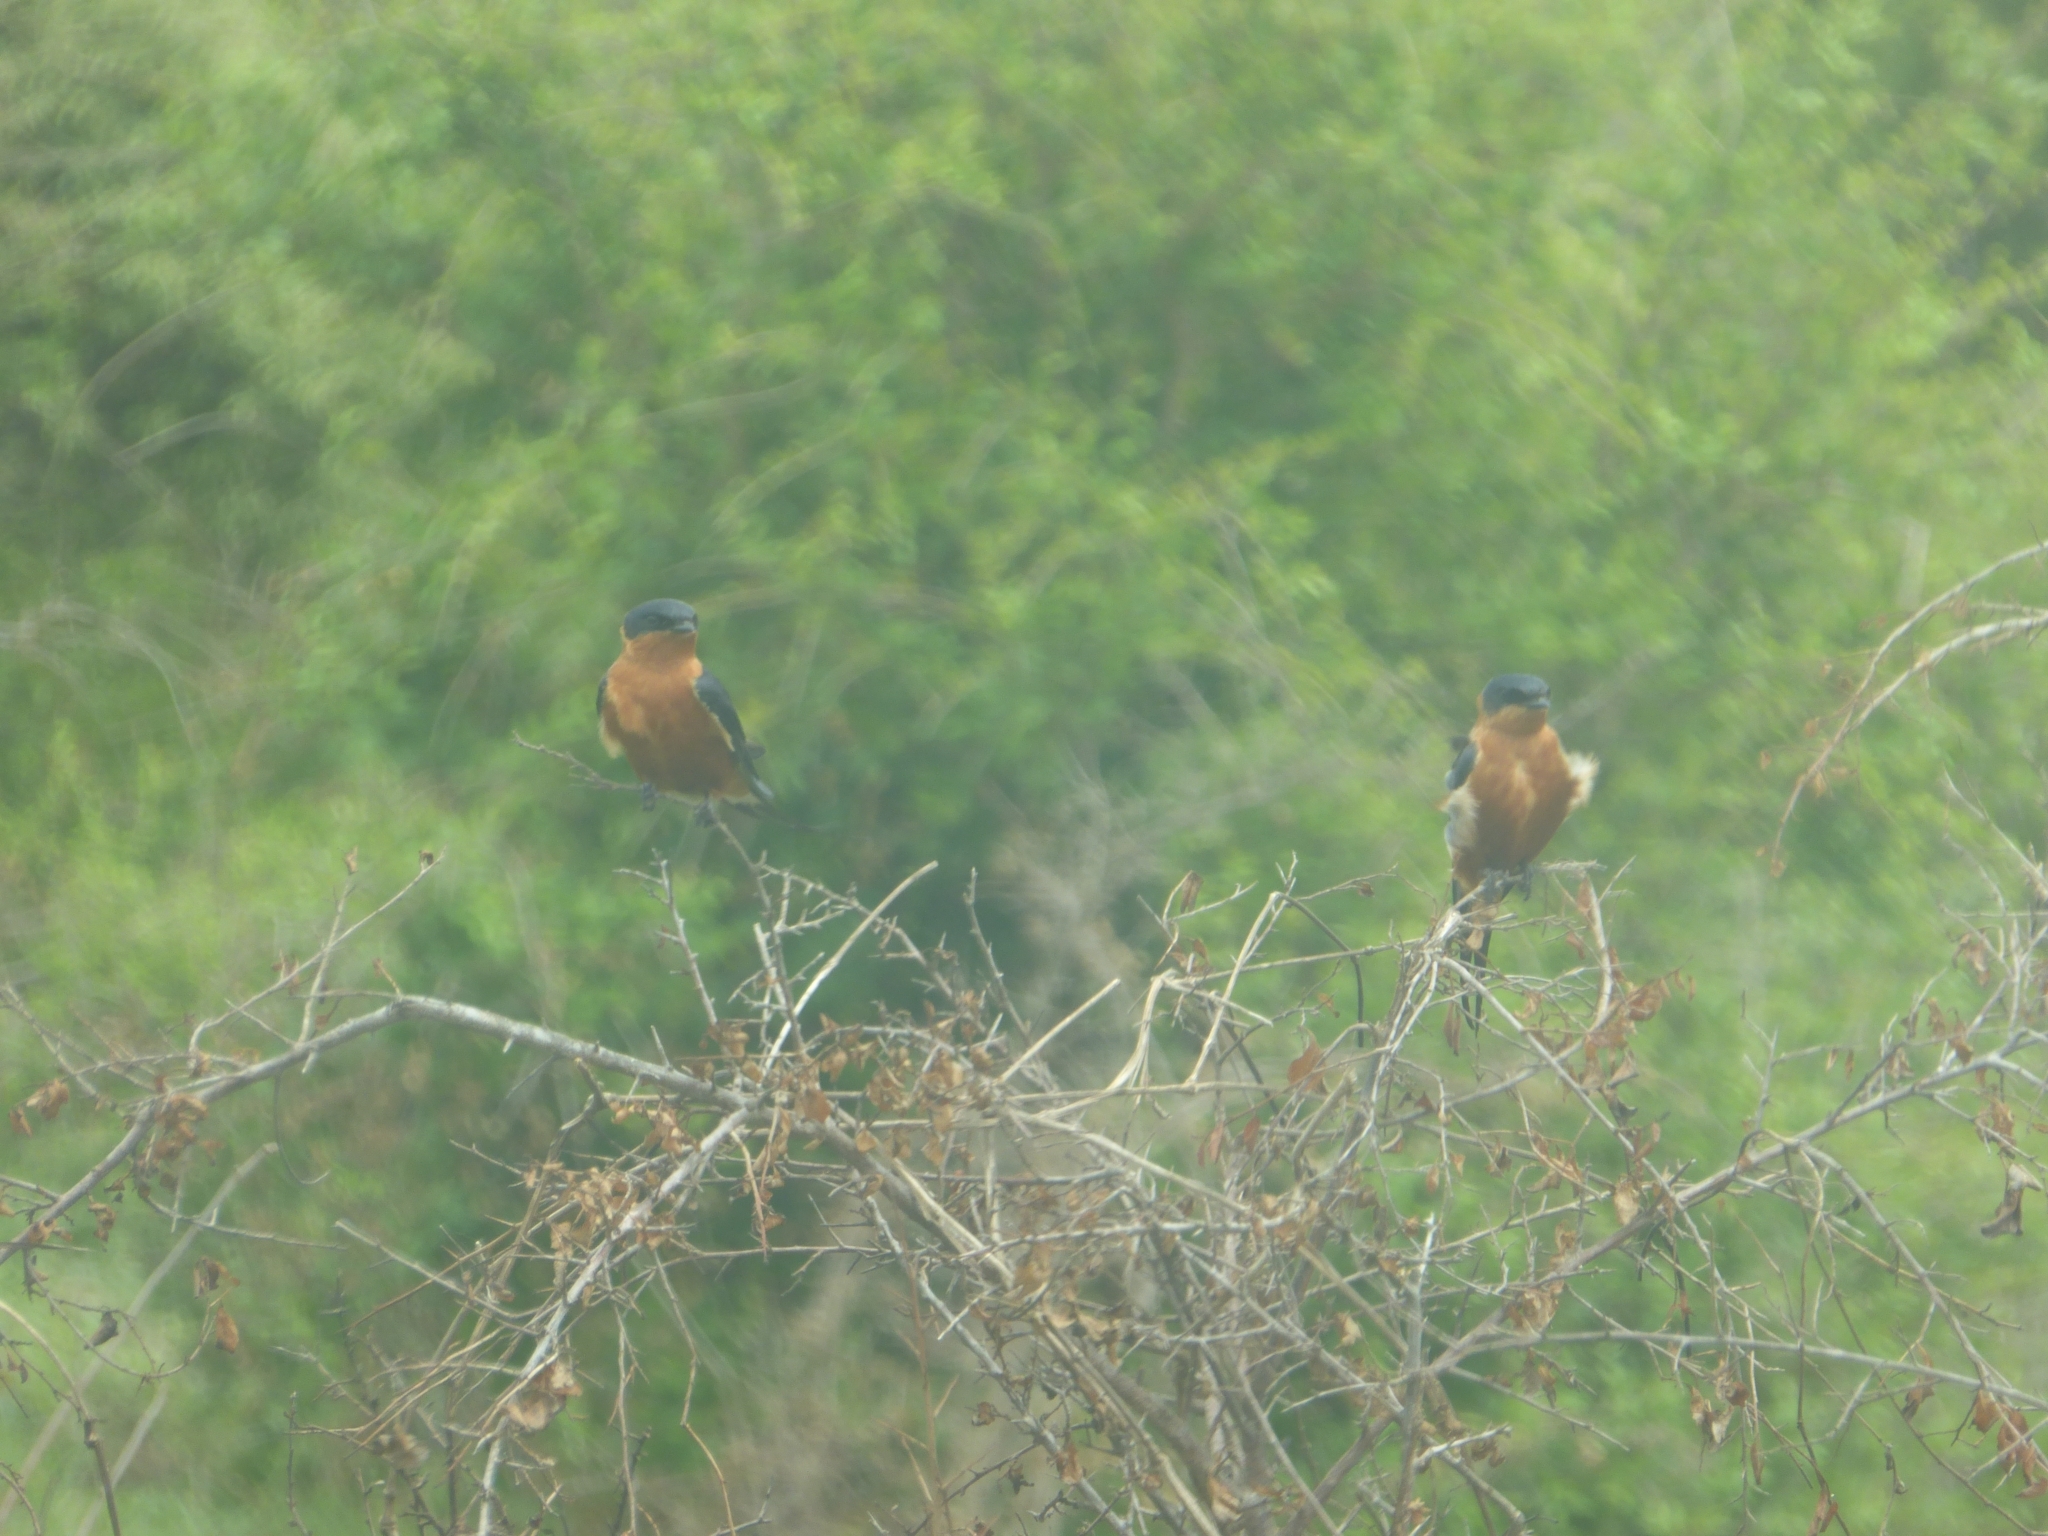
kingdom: Animalia
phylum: Chordata
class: Aves
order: Passeriformes
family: Hirundinidae
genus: Cecropis
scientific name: Cecropis semirufa
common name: Red-breasted swallow
